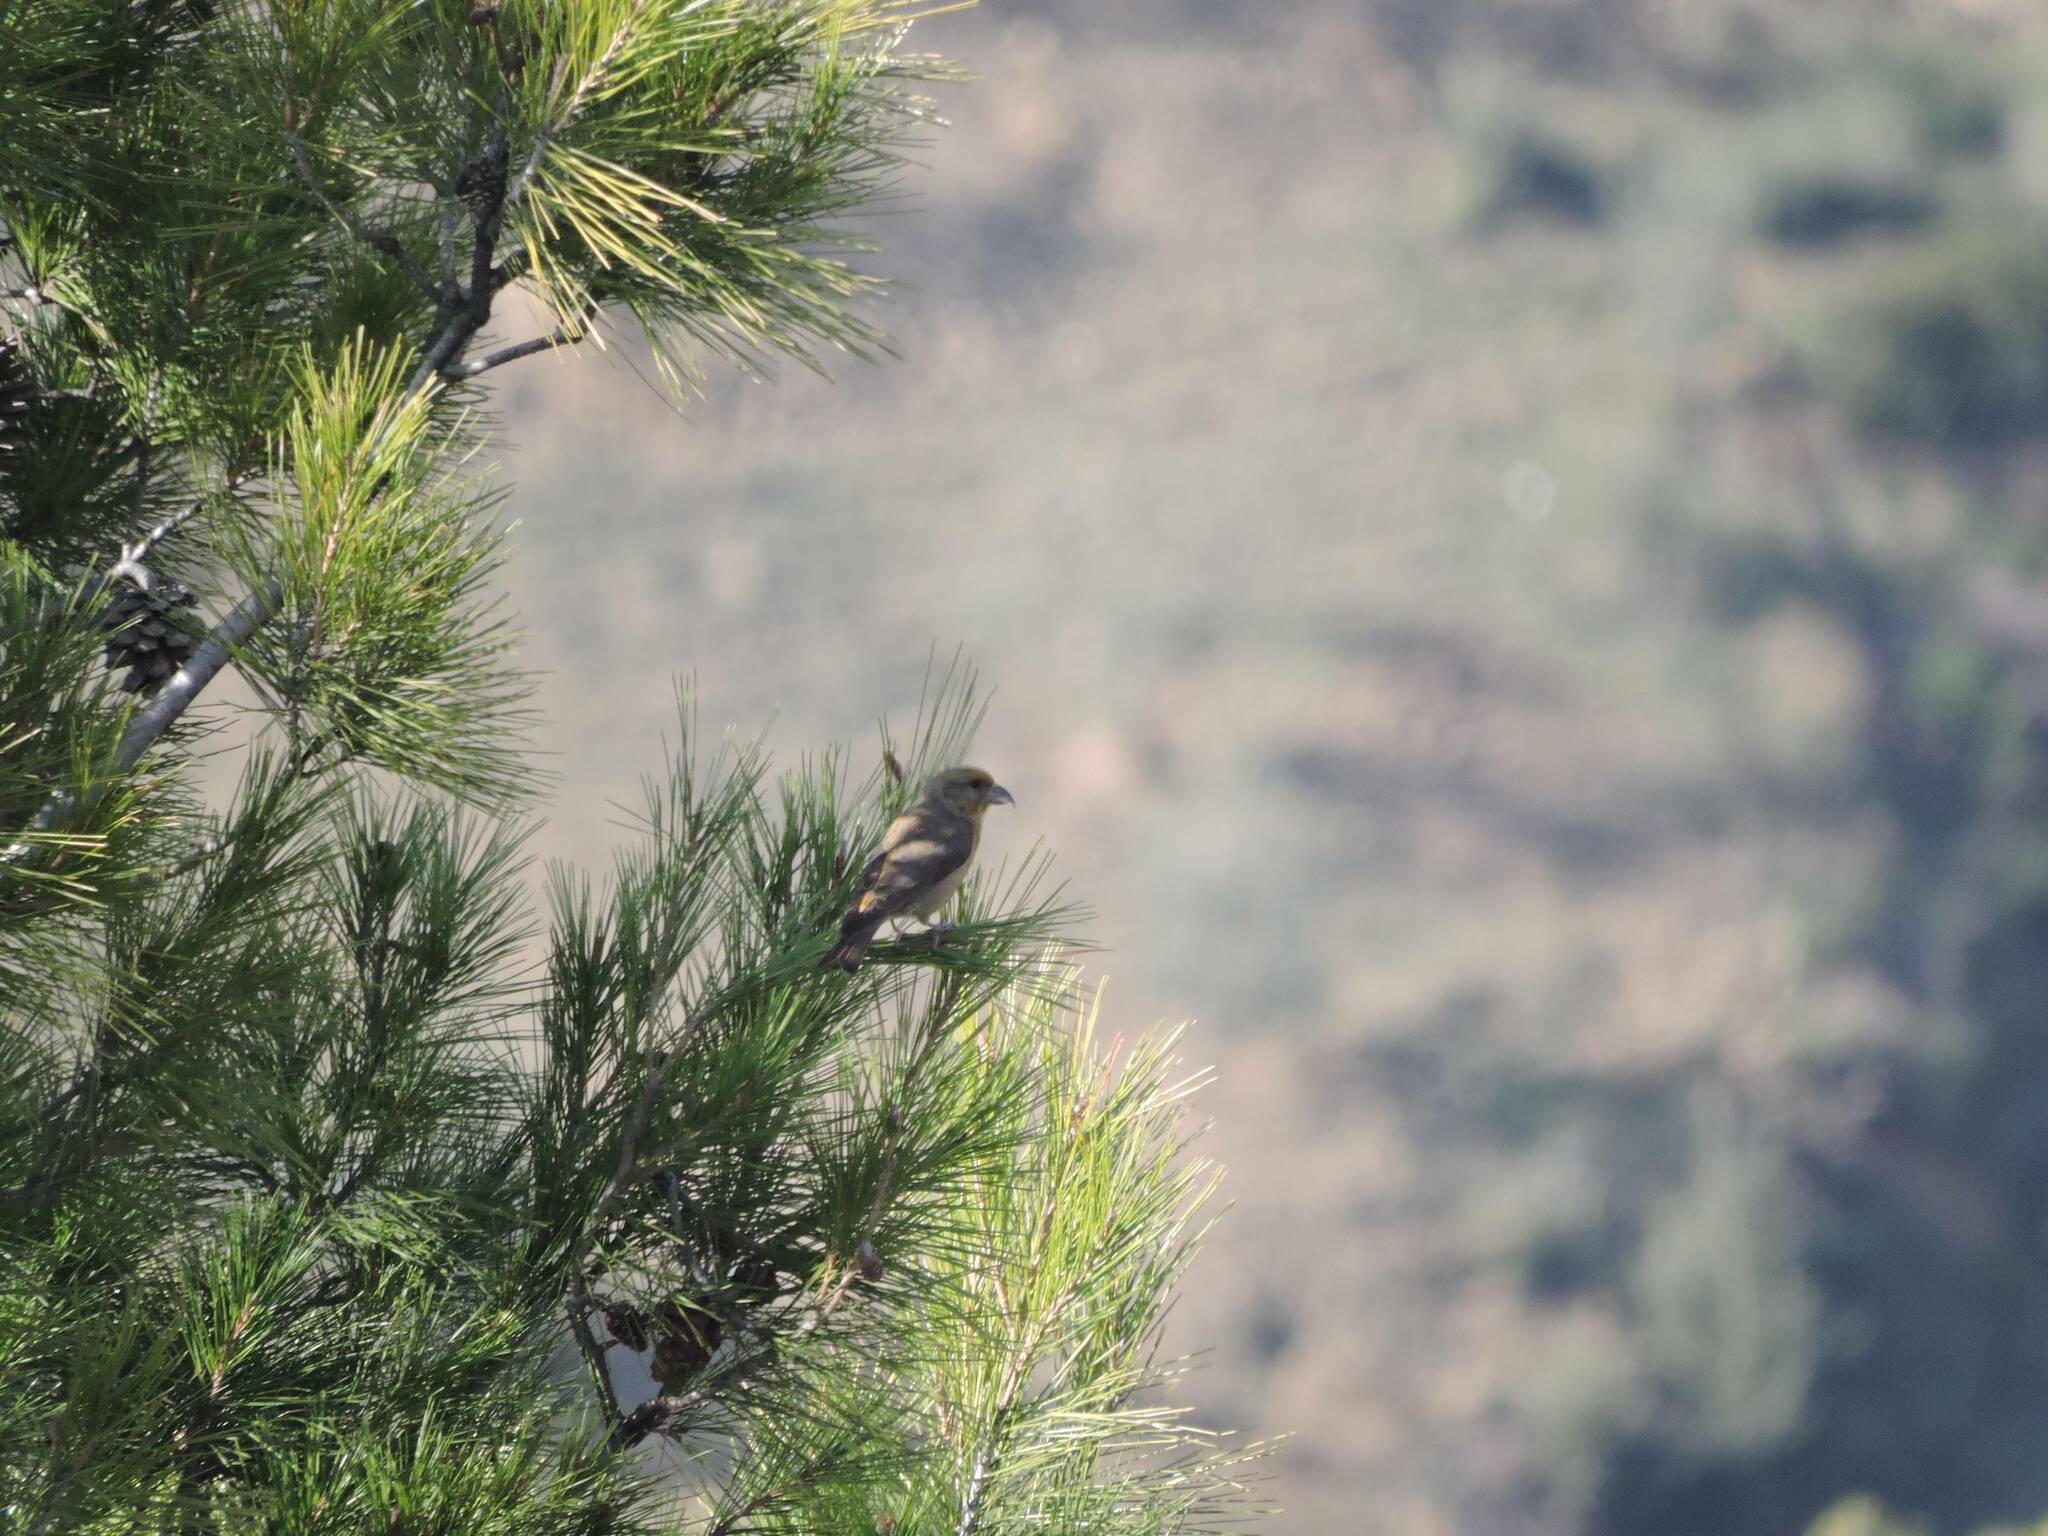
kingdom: Animalia
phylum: Chordata
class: Aves
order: Passeriformes
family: Fringillidae
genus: Loxia
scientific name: Loxia curvirostra
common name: Red crossbill
